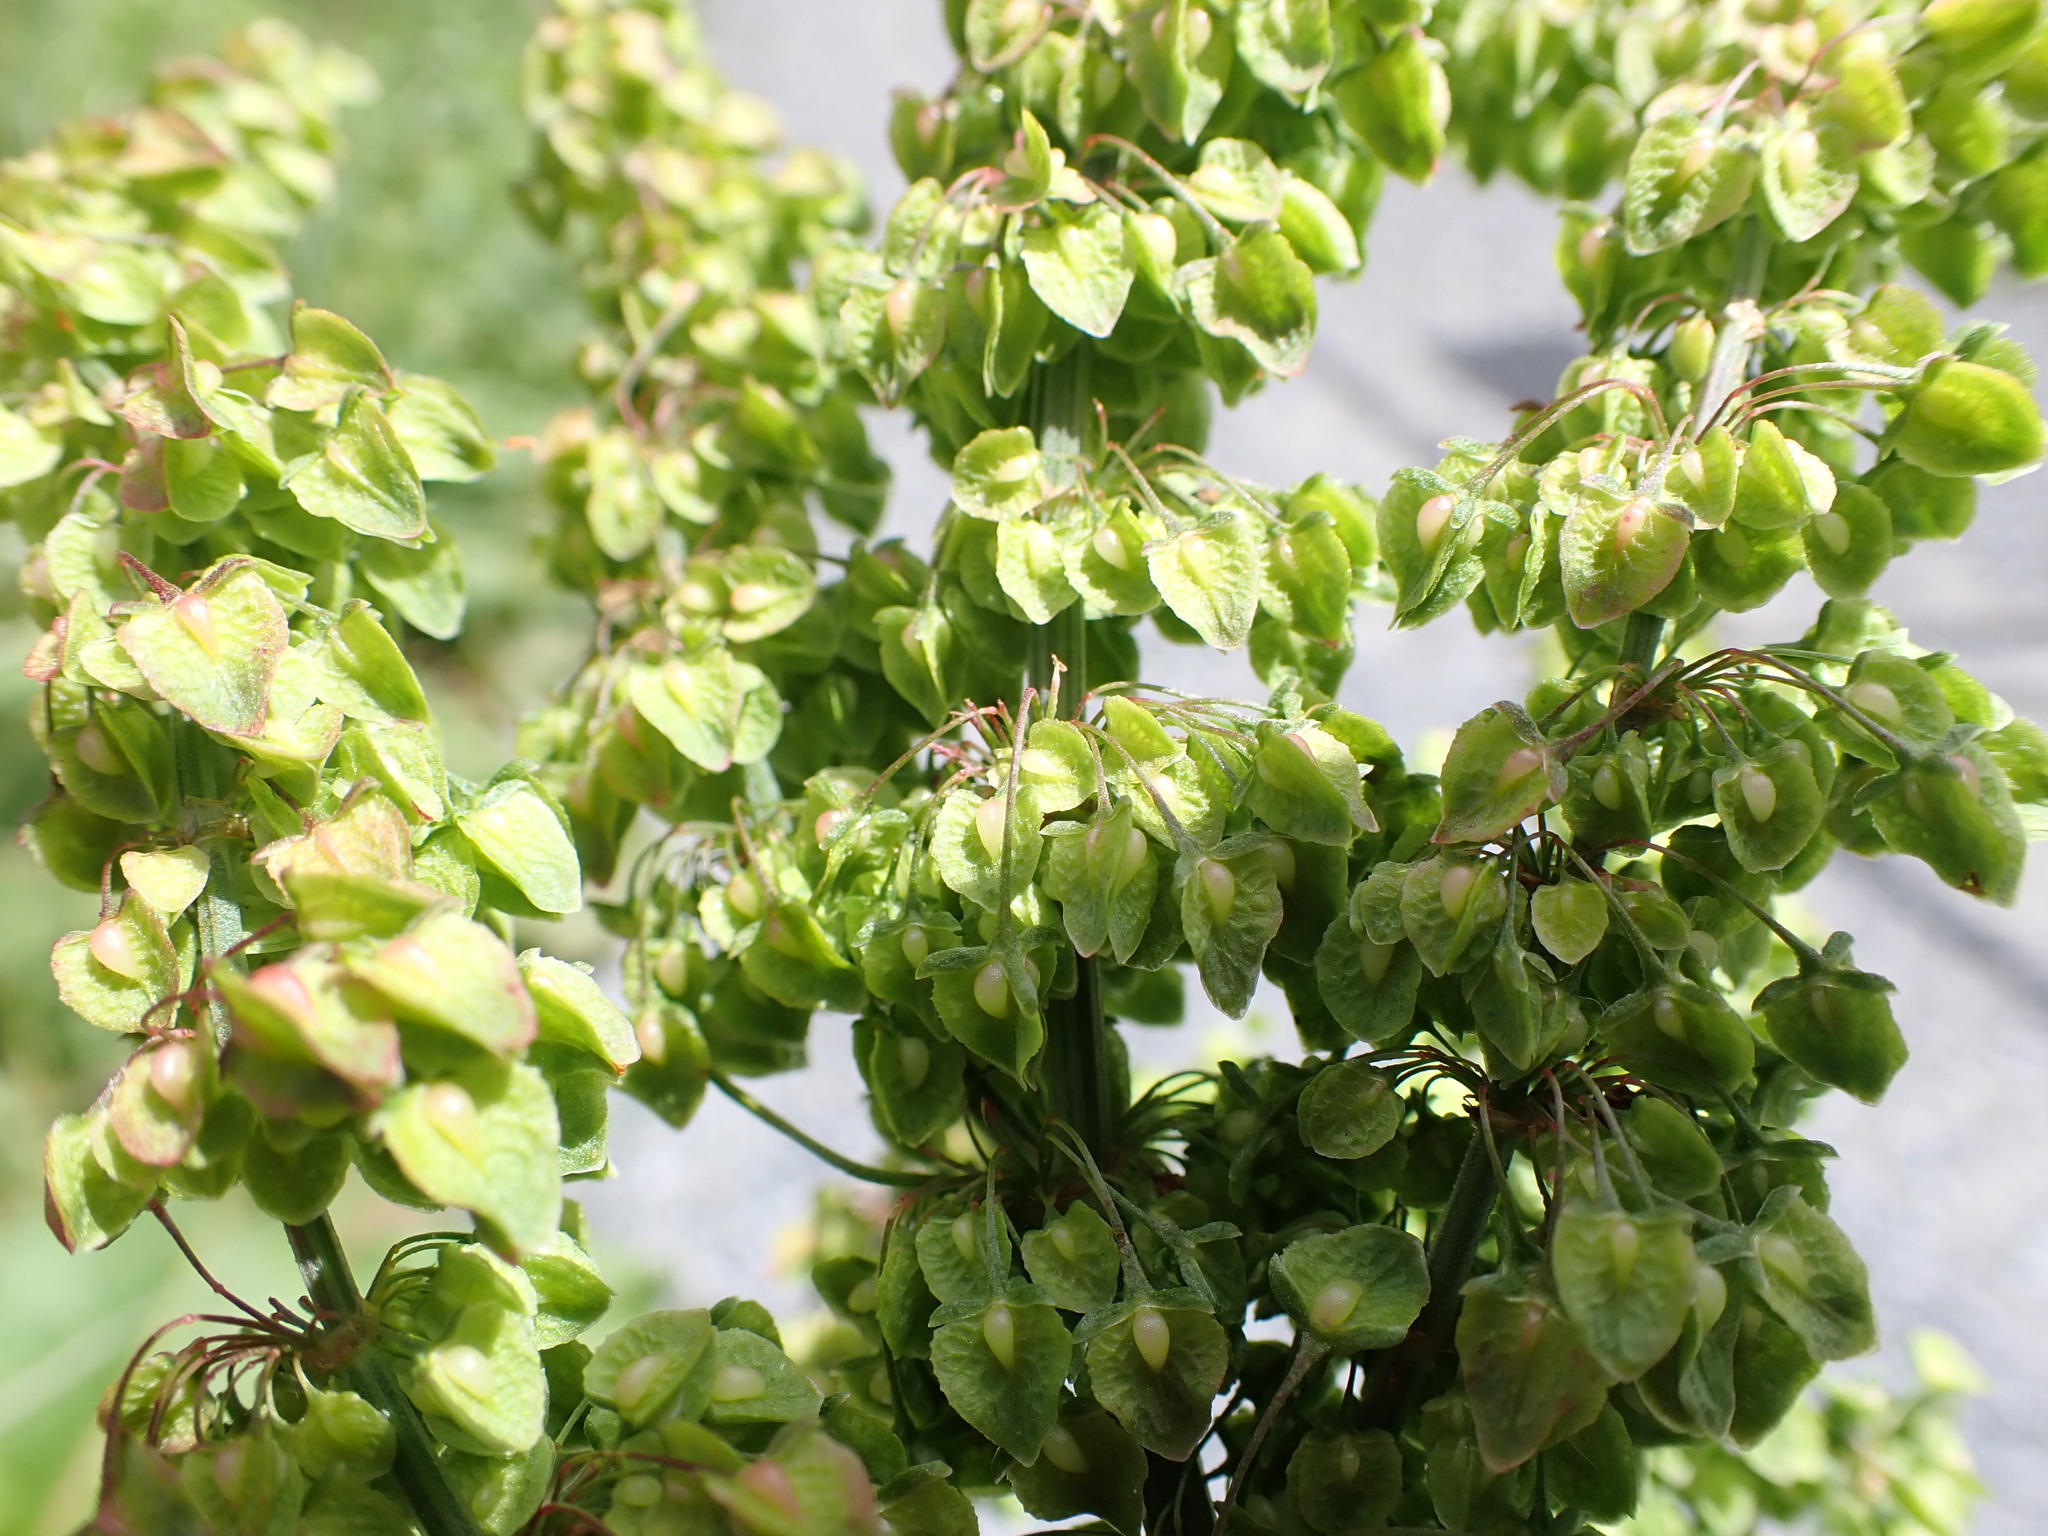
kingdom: Plantae
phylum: Tracheophyta
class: Magnoliopsida
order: Caryophyllales
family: Polygonaceae
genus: Rumex
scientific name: Rumex crispus
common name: Curled dock
